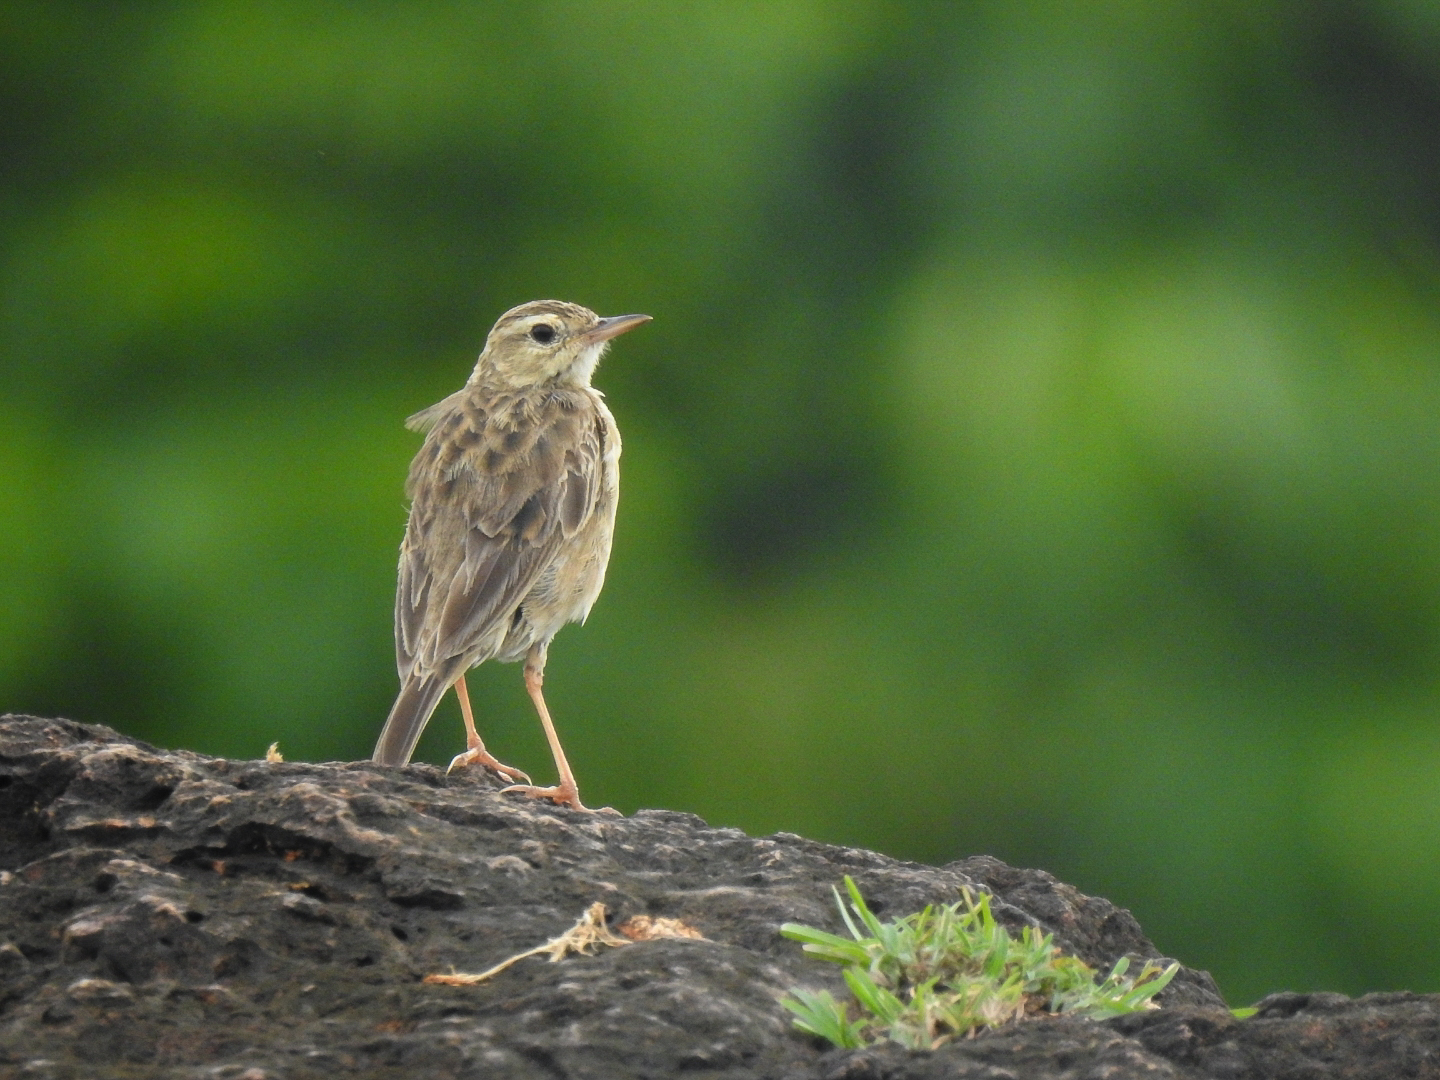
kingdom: Animalia
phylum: Chordata
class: Aves
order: Passeriformes
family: Motacillidae
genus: Anthus
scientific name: Anthus rufulus
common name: Paddyfield pipit
